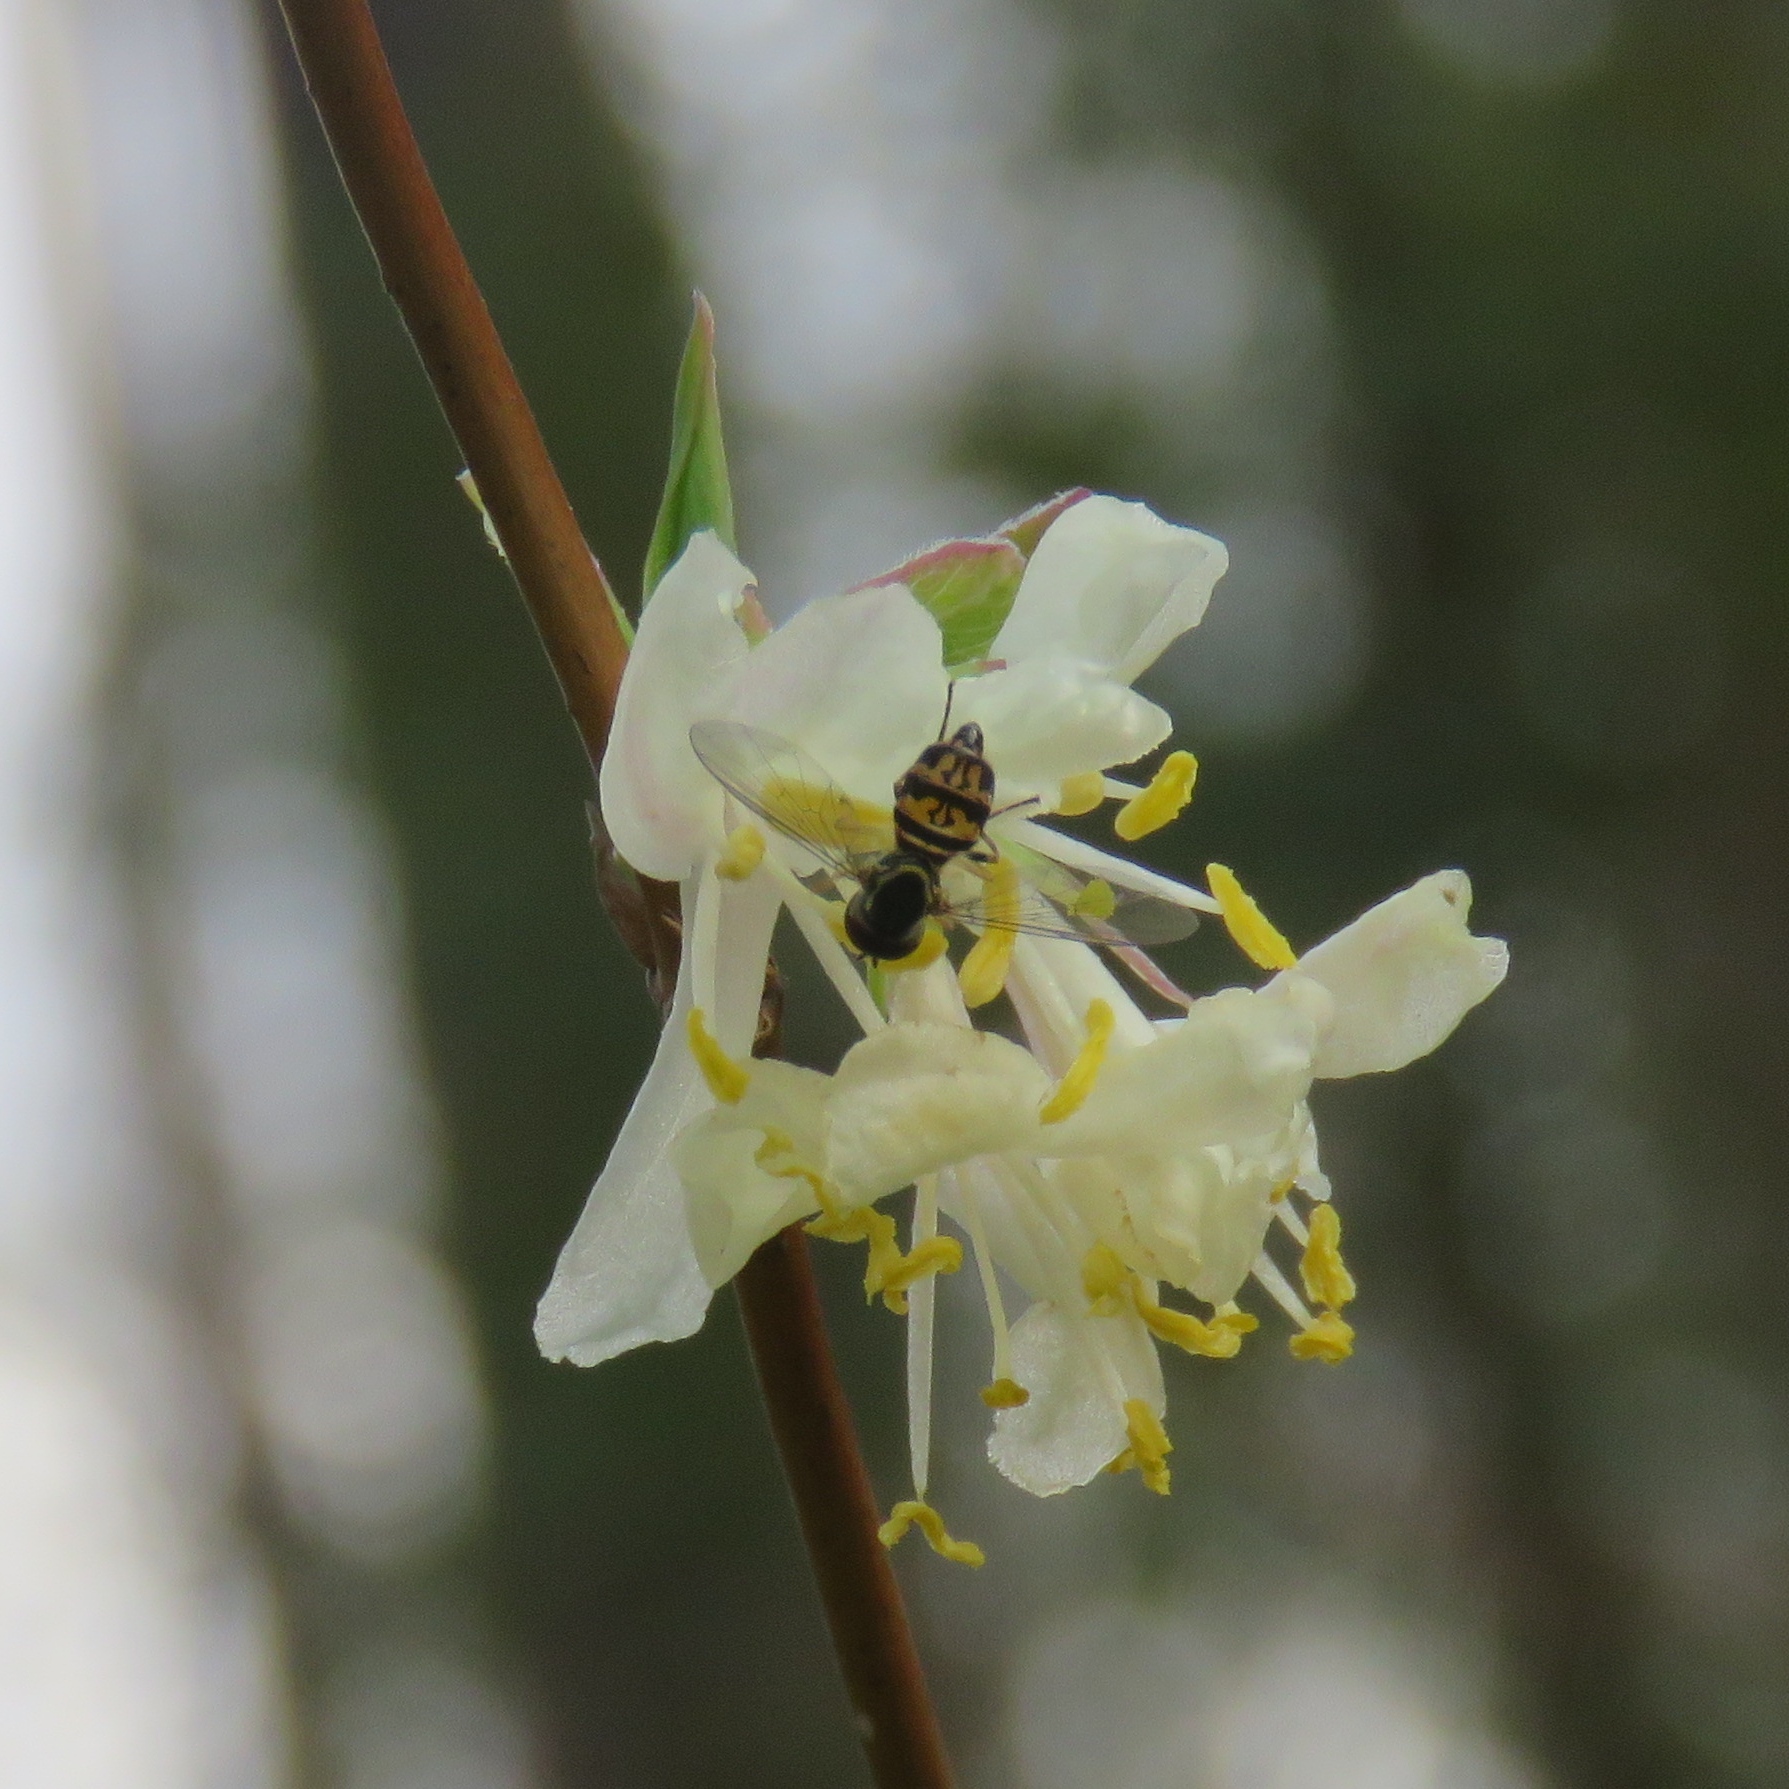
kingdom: Animalia
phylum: Arthropoda
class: Insecta
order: Diptera
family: Syrphidae
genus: Toxomerus
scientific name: Toxomerus geminatus
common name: Eastern calligrapher
